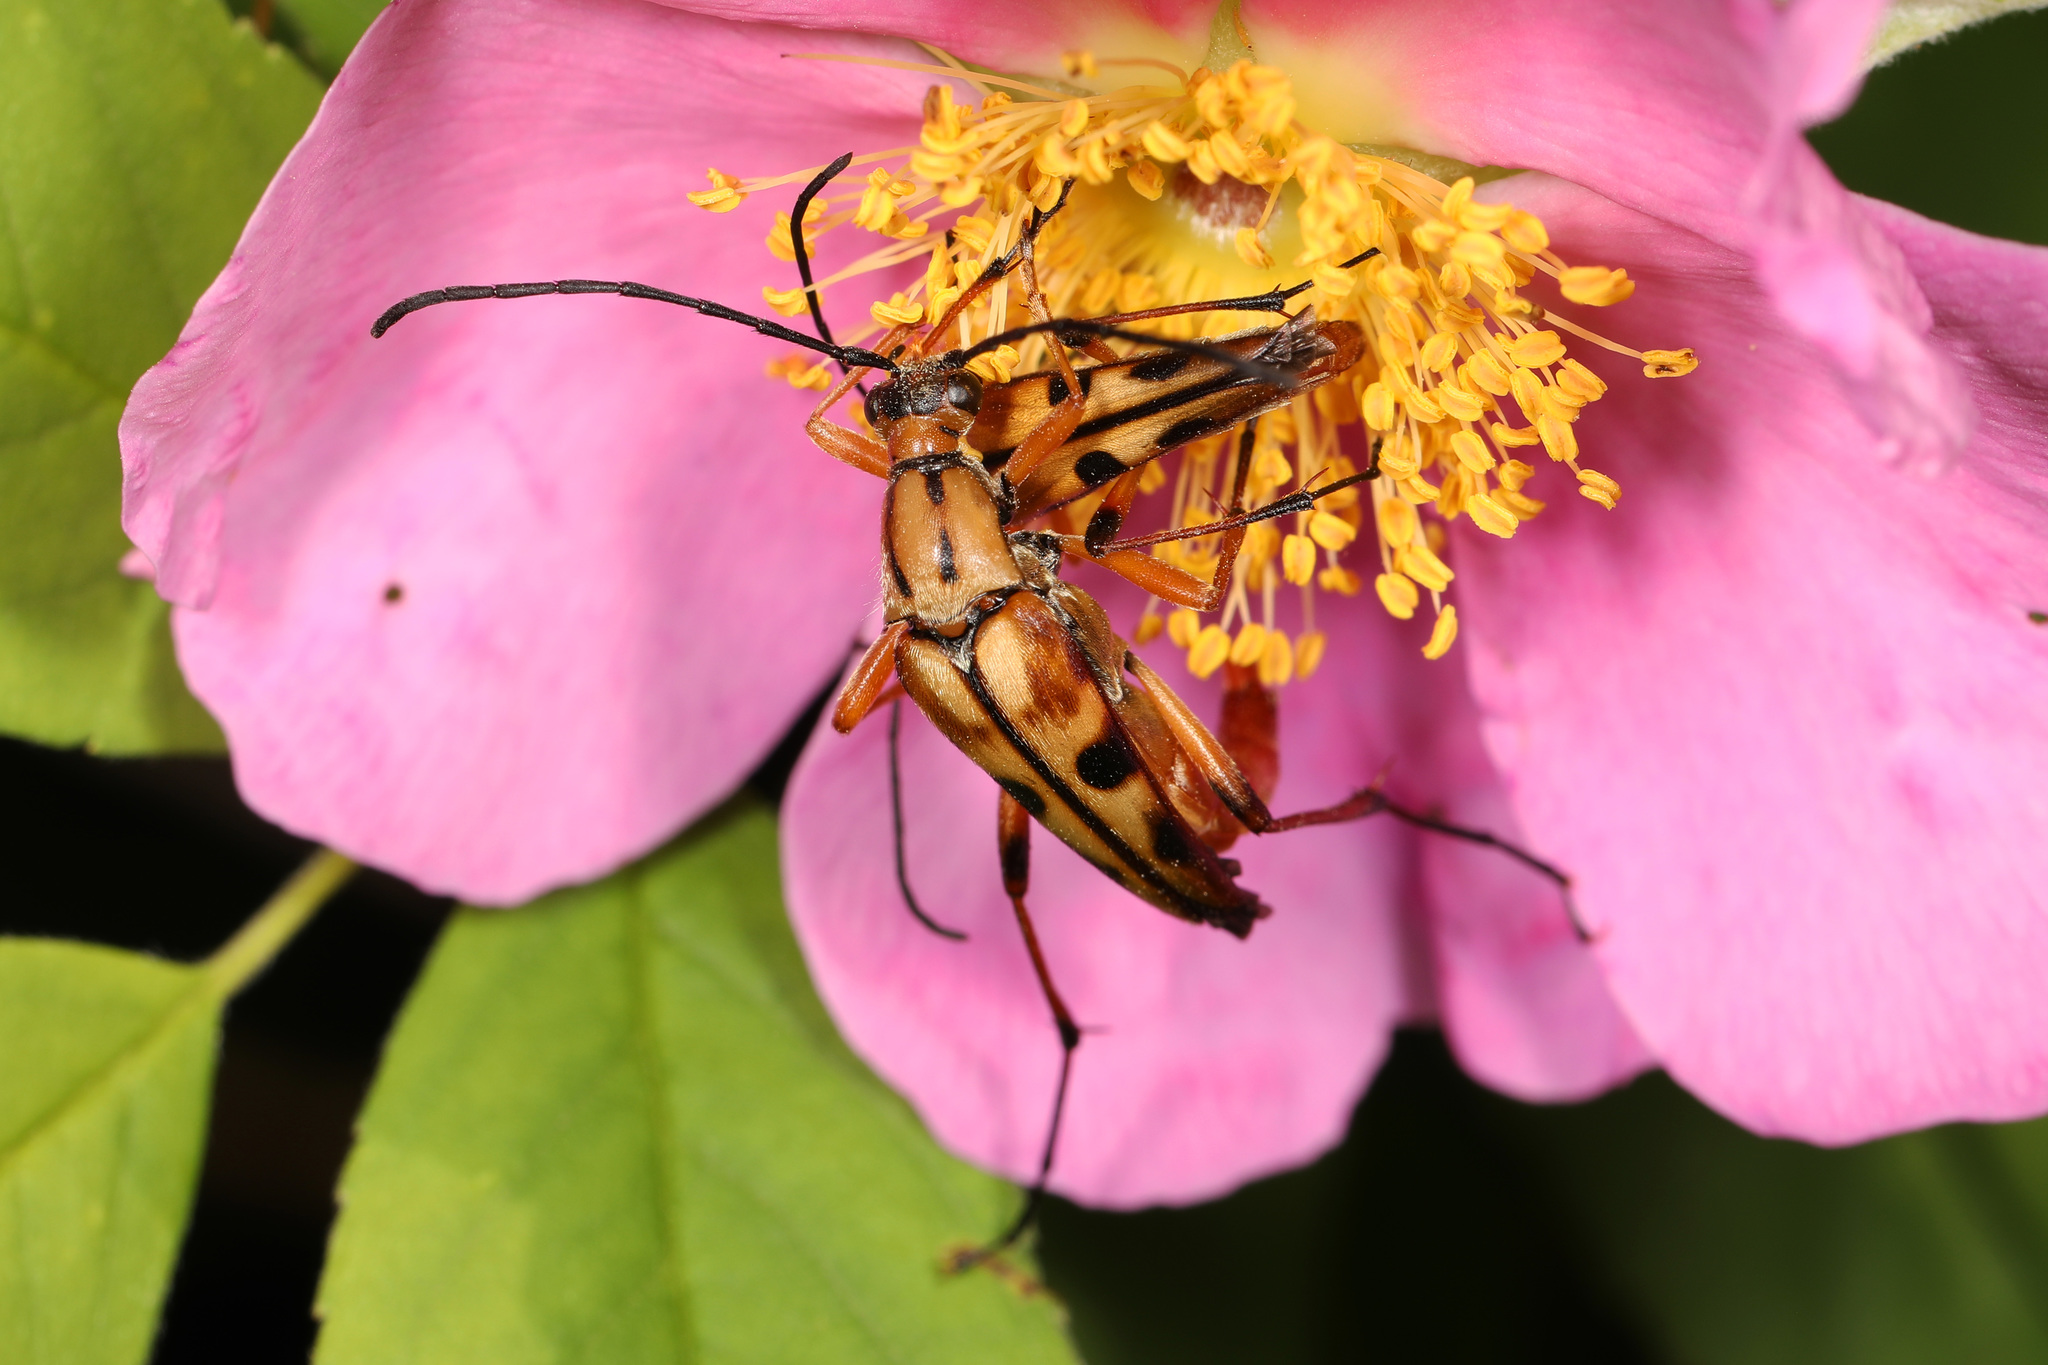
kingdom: Animalia
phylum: Arthropoda
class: Insecta
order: Coleoptera
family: Cerambycidae
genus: Strangalia
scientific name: Strangalia famelica
